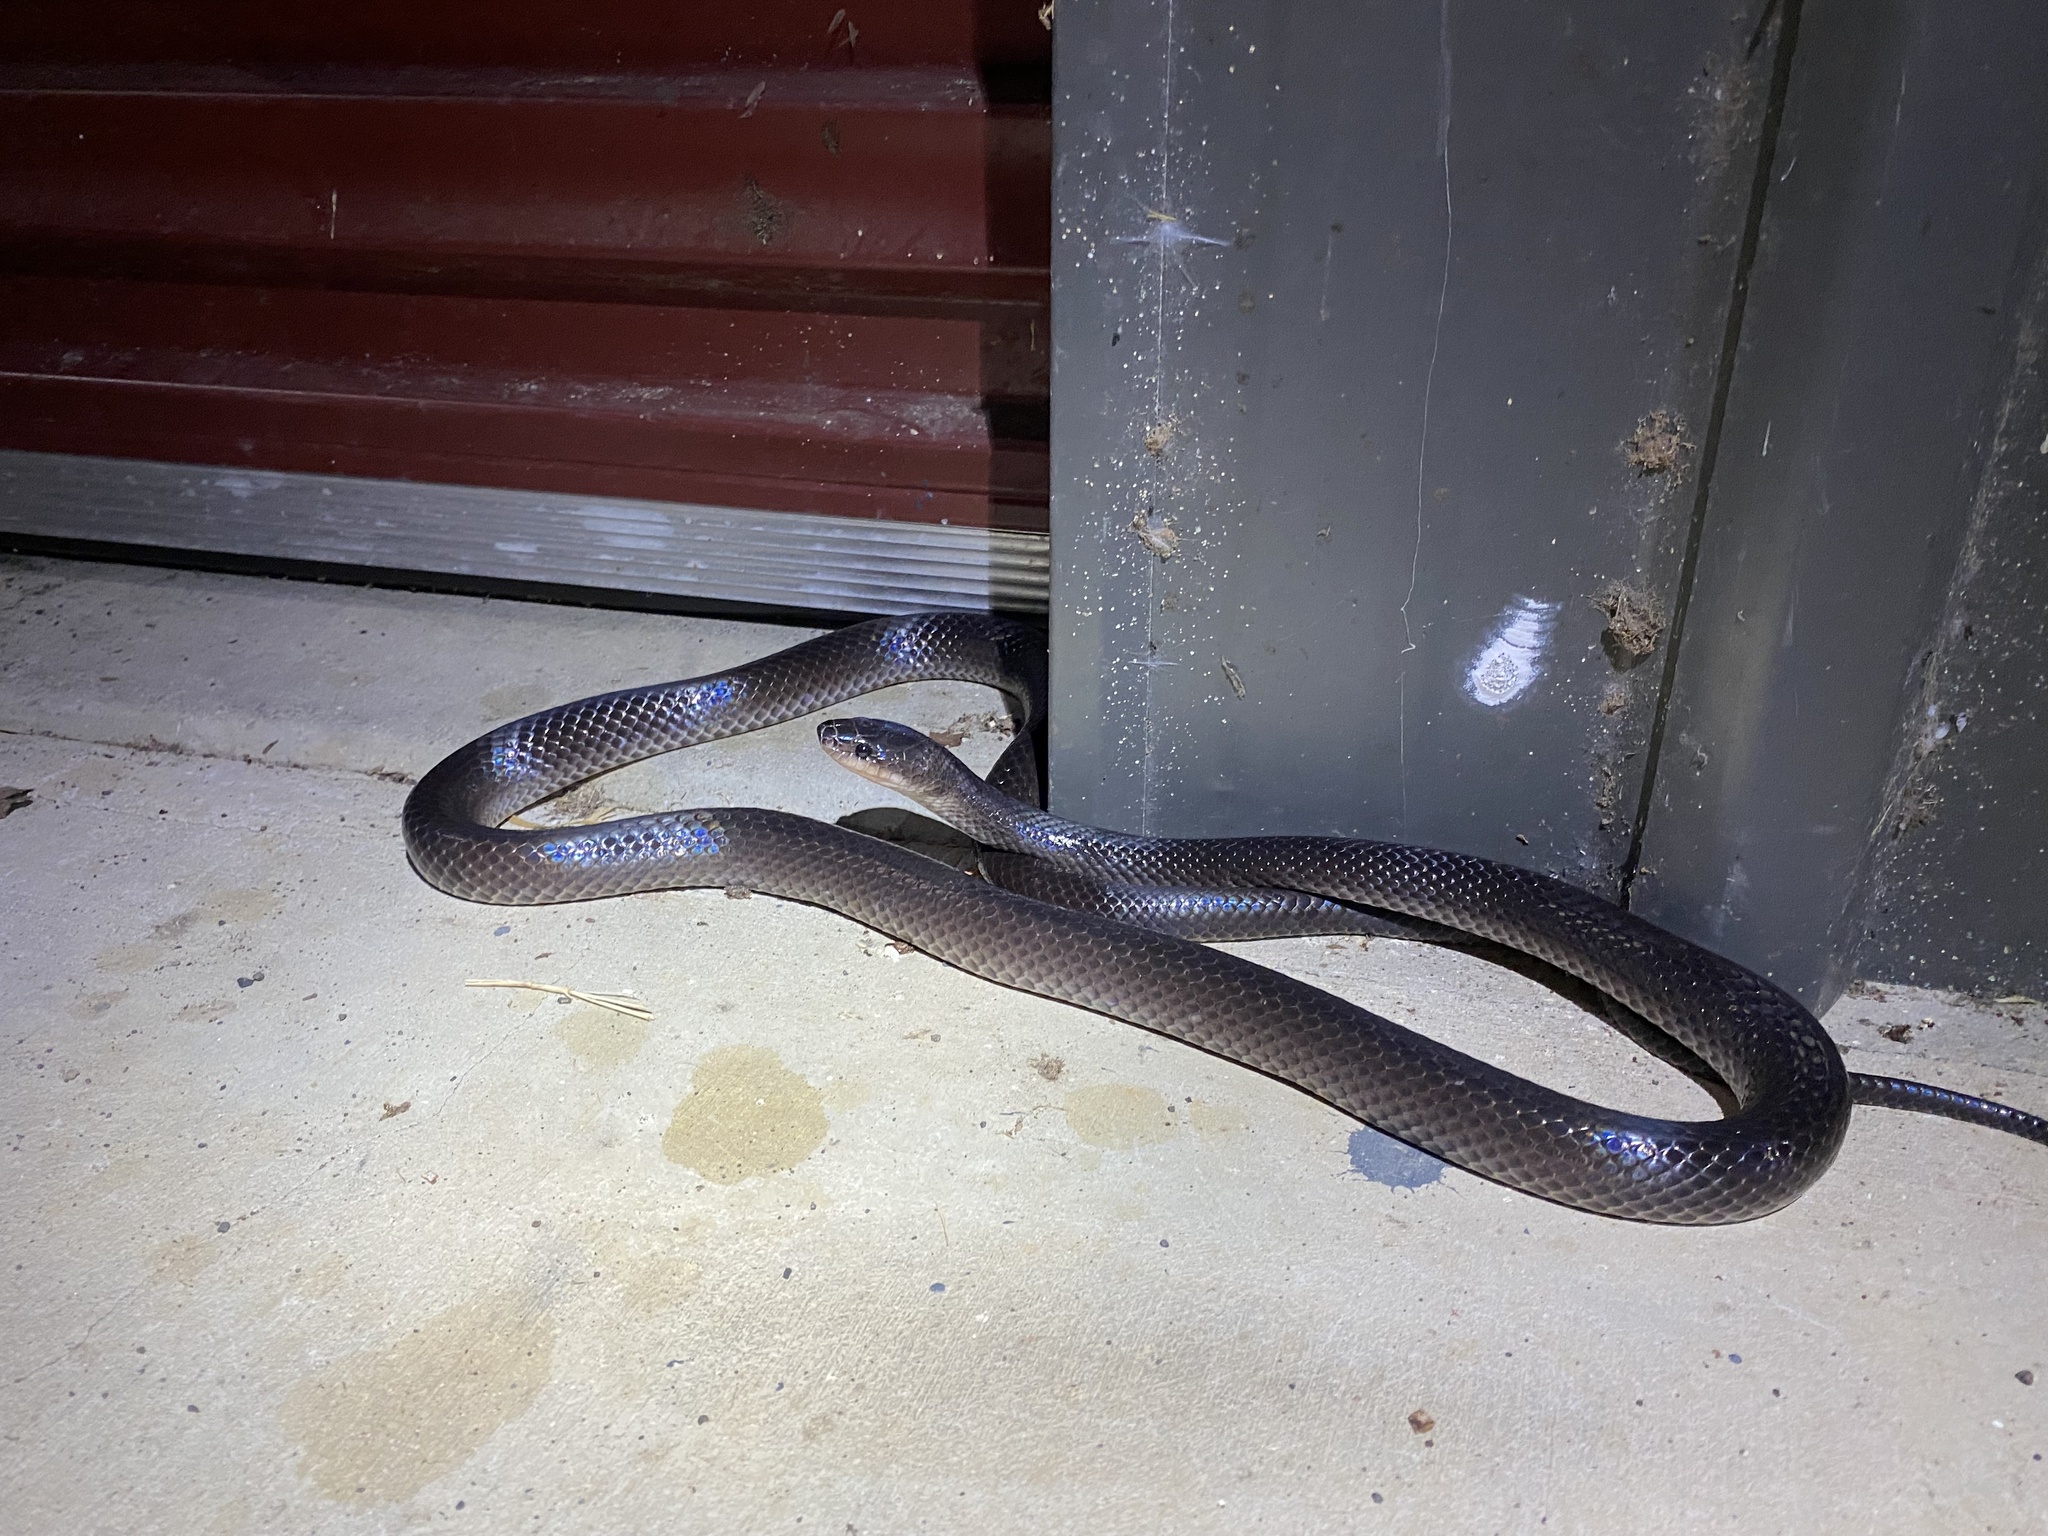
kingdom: Animalia
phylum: Chordata
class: Squamata
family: Colubridae
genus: Stegonotus
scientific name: Stegonotus australis
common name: Australian groundsnake
